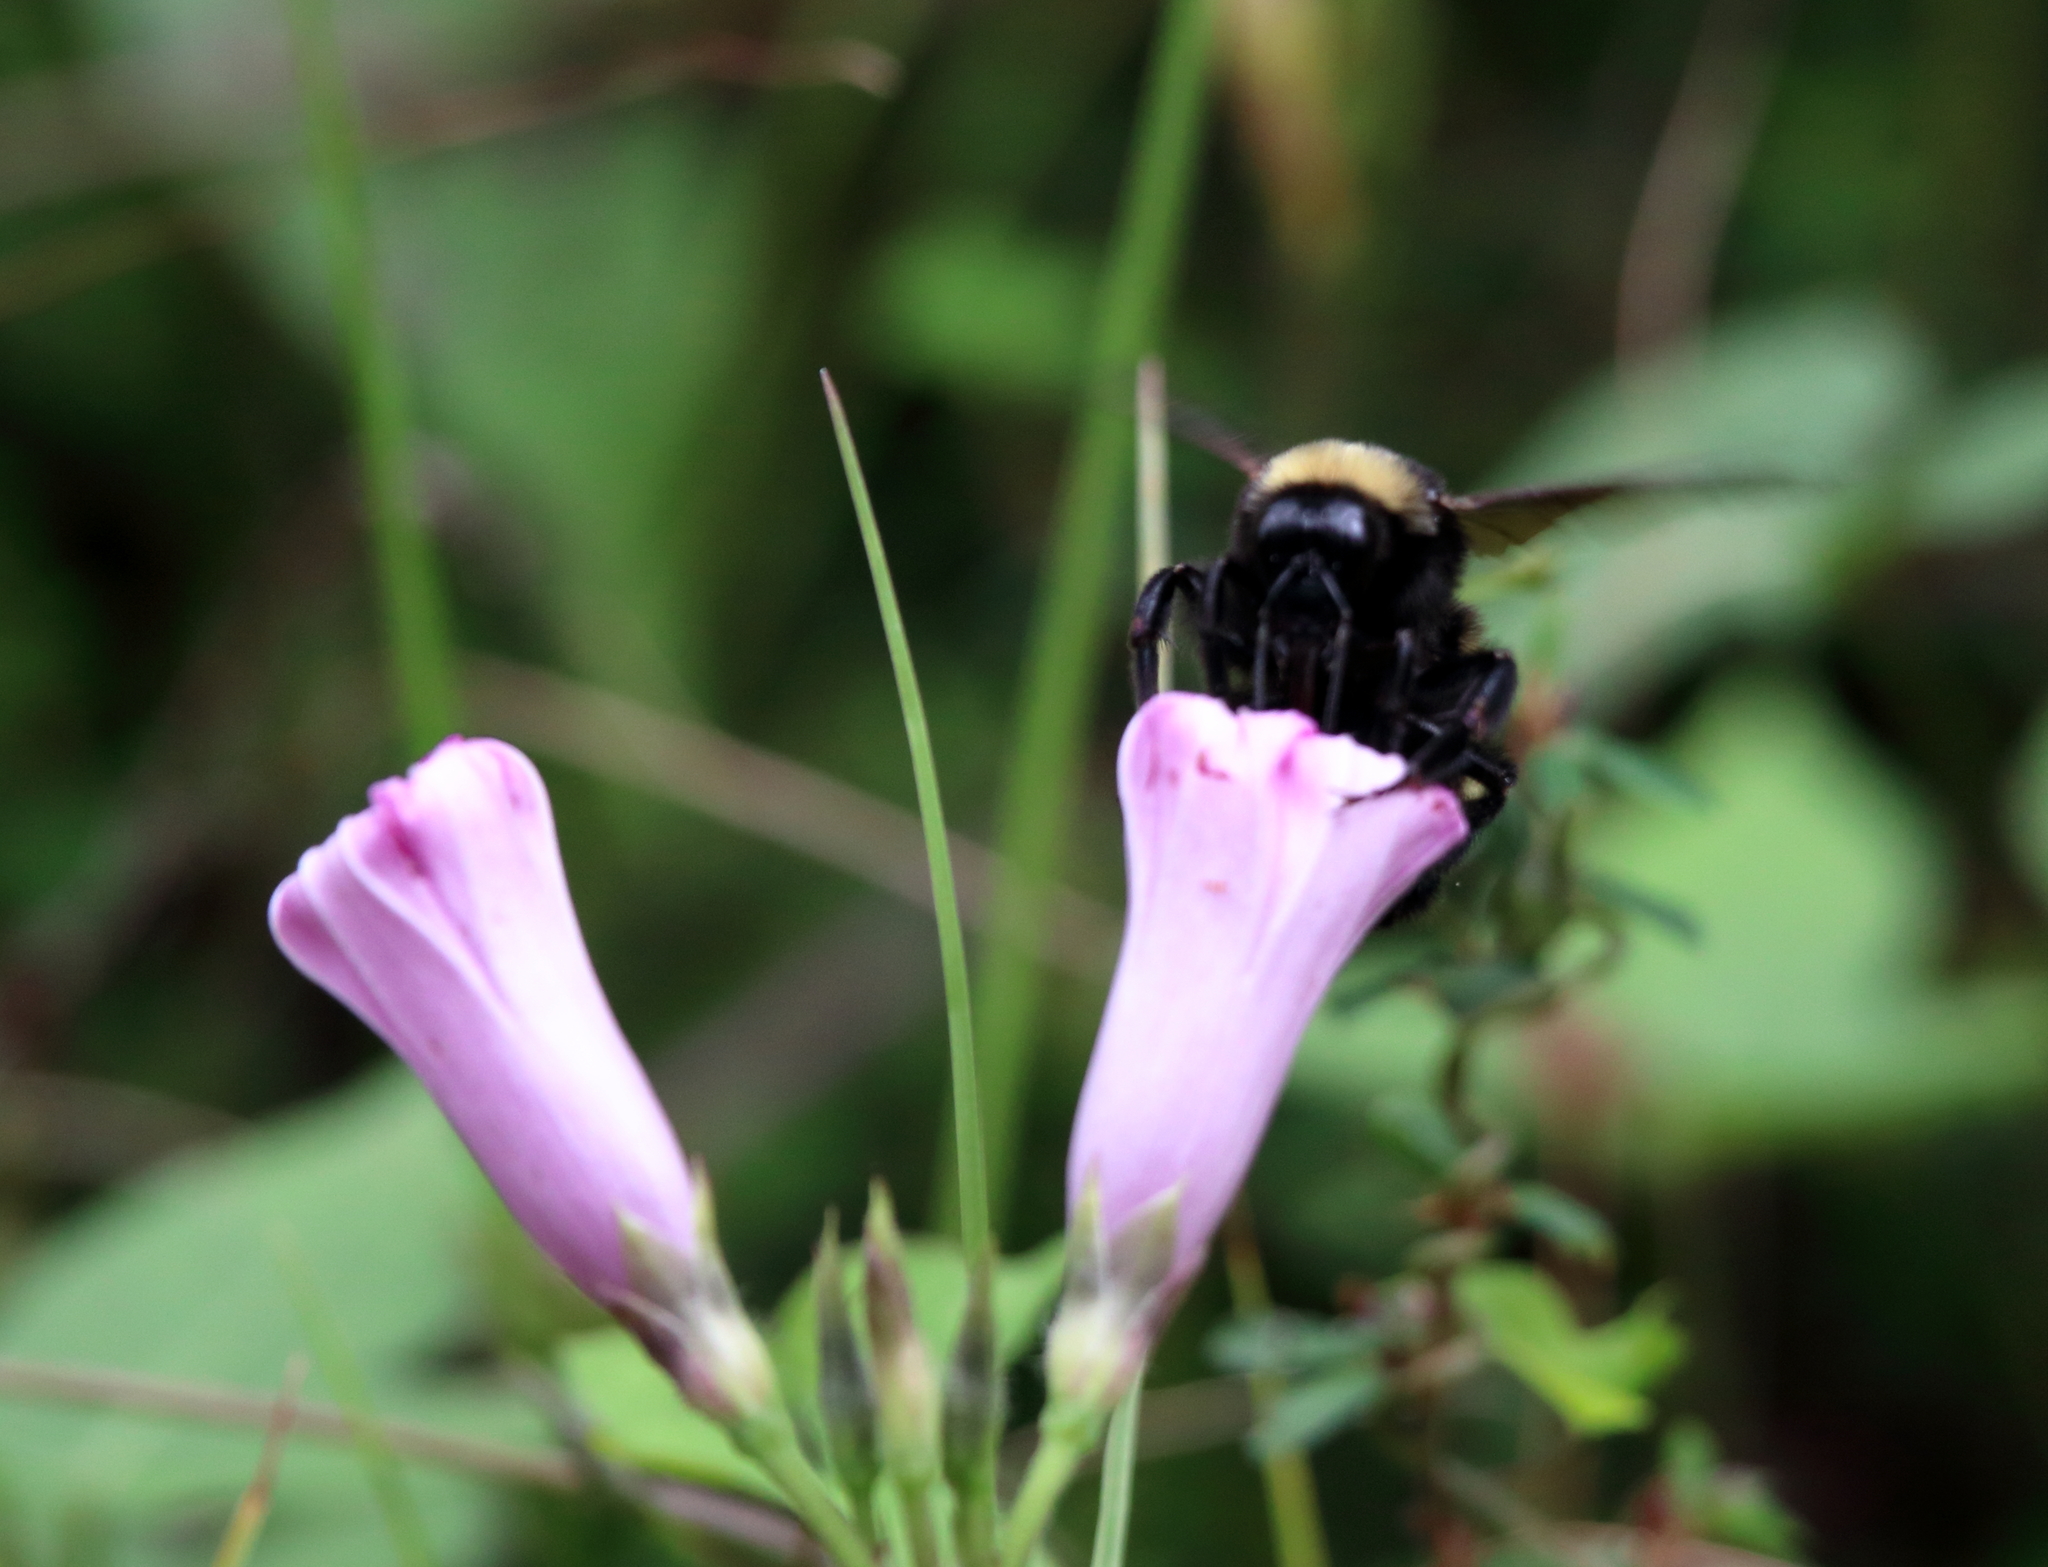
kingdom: Animalia
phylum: Arthropoda
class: Insecta
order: Hymenoptera
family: Apidae
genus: Bombus
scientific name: Bombus pensylvanicus
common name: Bumble bee
